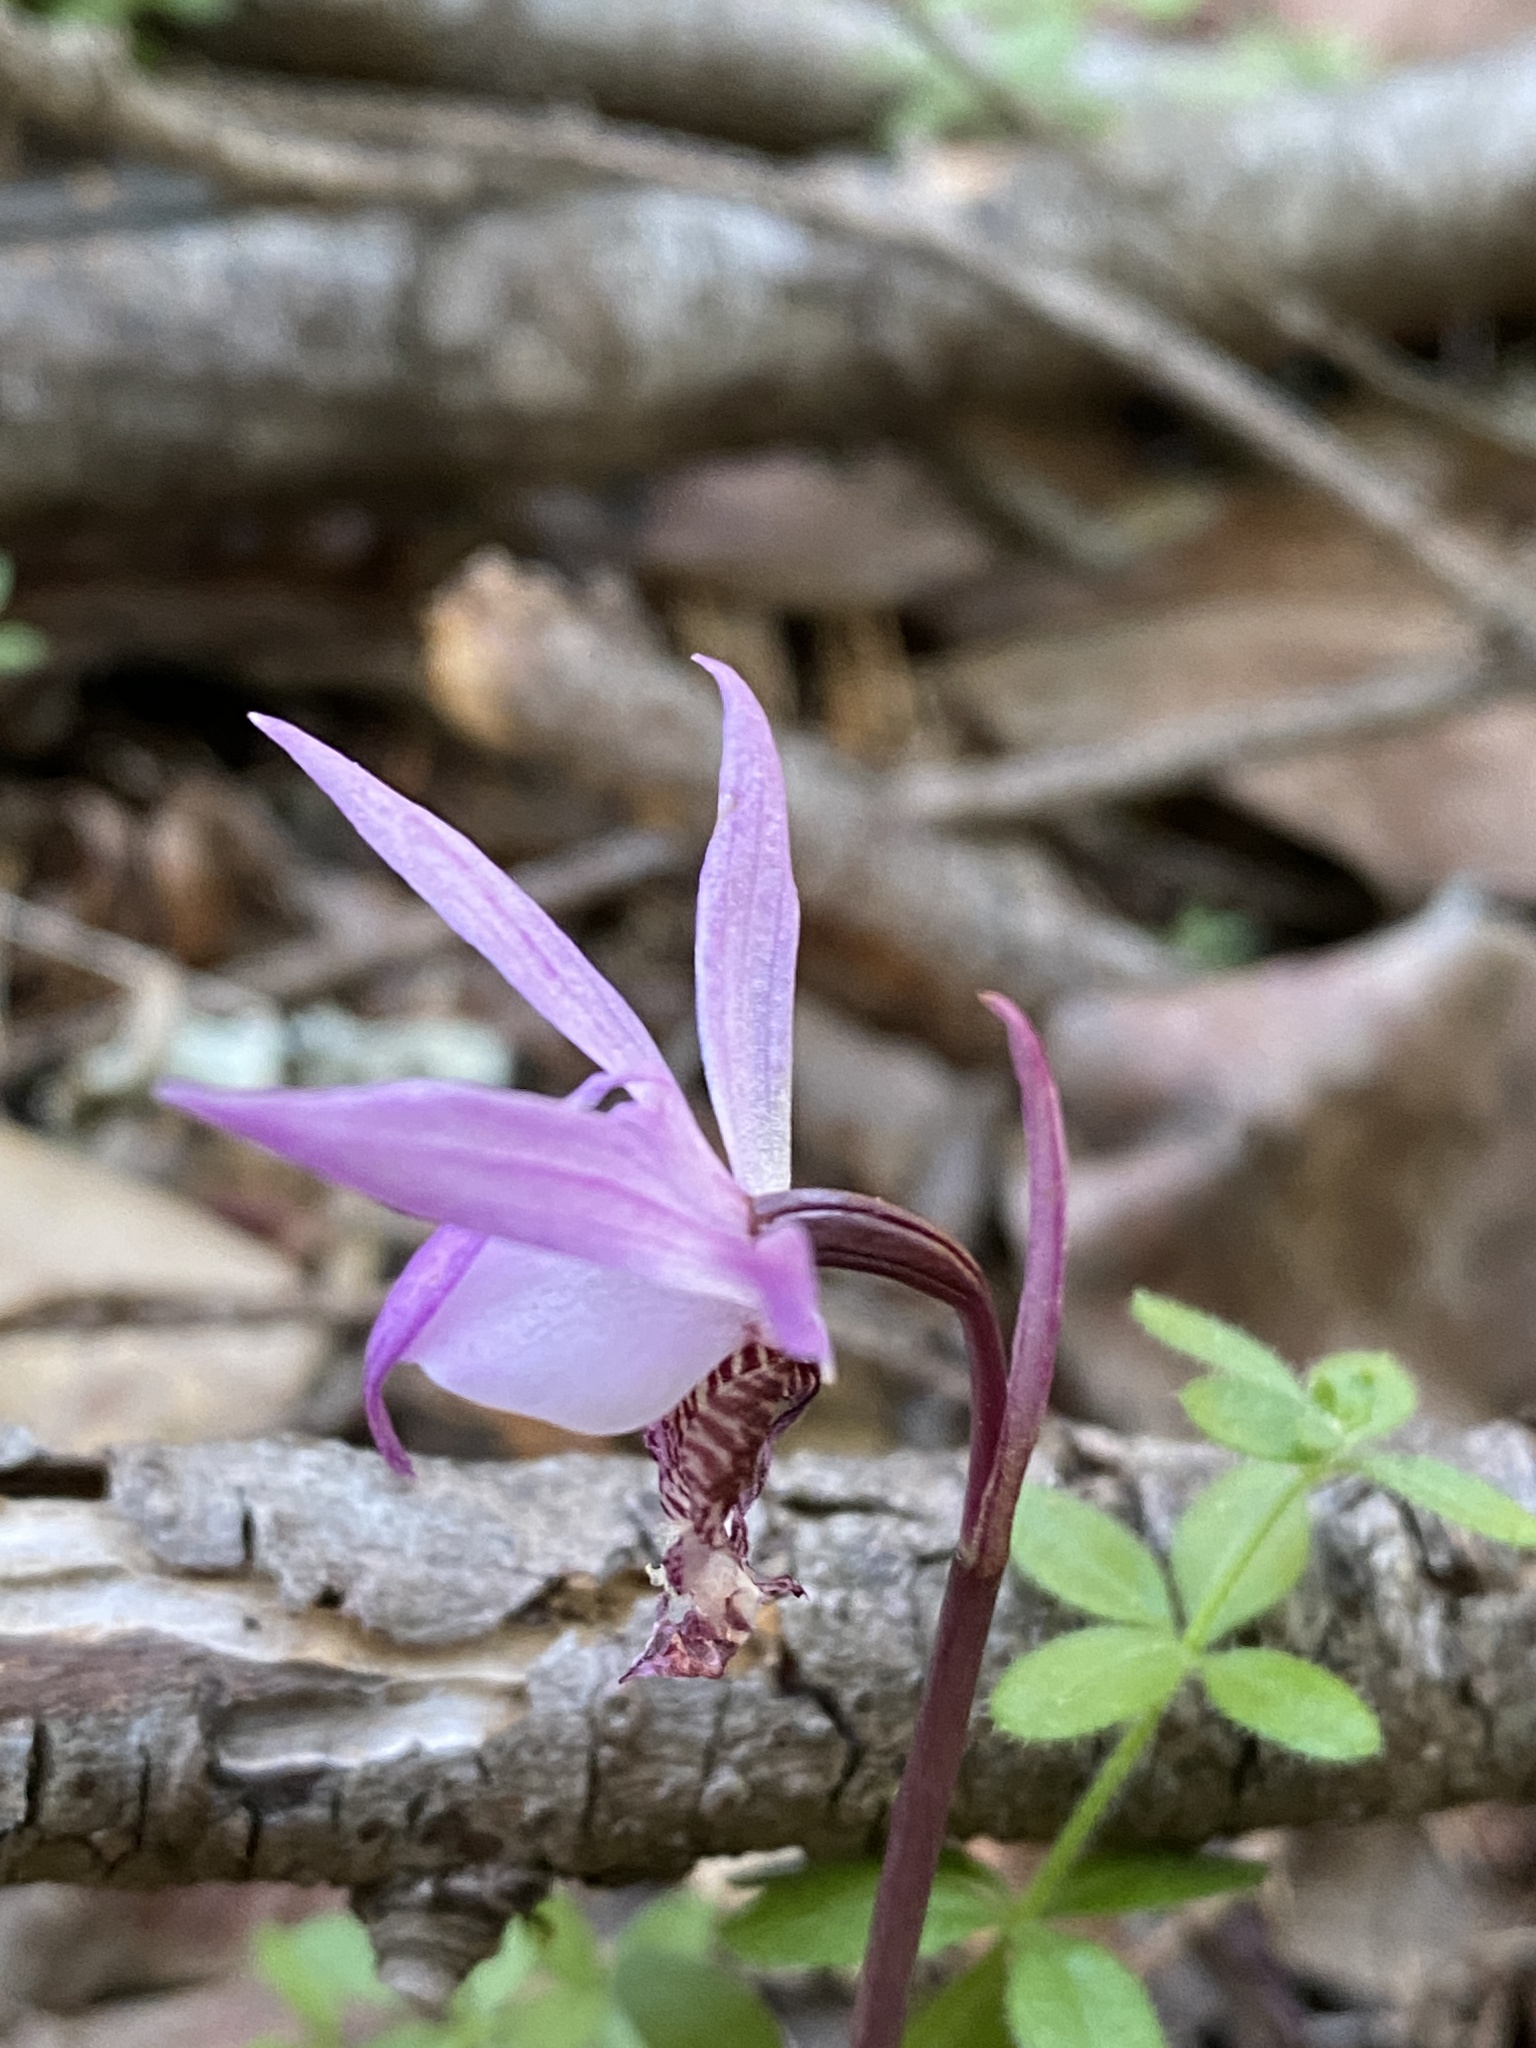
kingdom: Plantae
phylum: Tracheophyta
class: Liliopsida
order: Asparagales
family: Orchidaceae
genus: Calypso
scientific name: Calypso bulbosa
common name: Calypso
